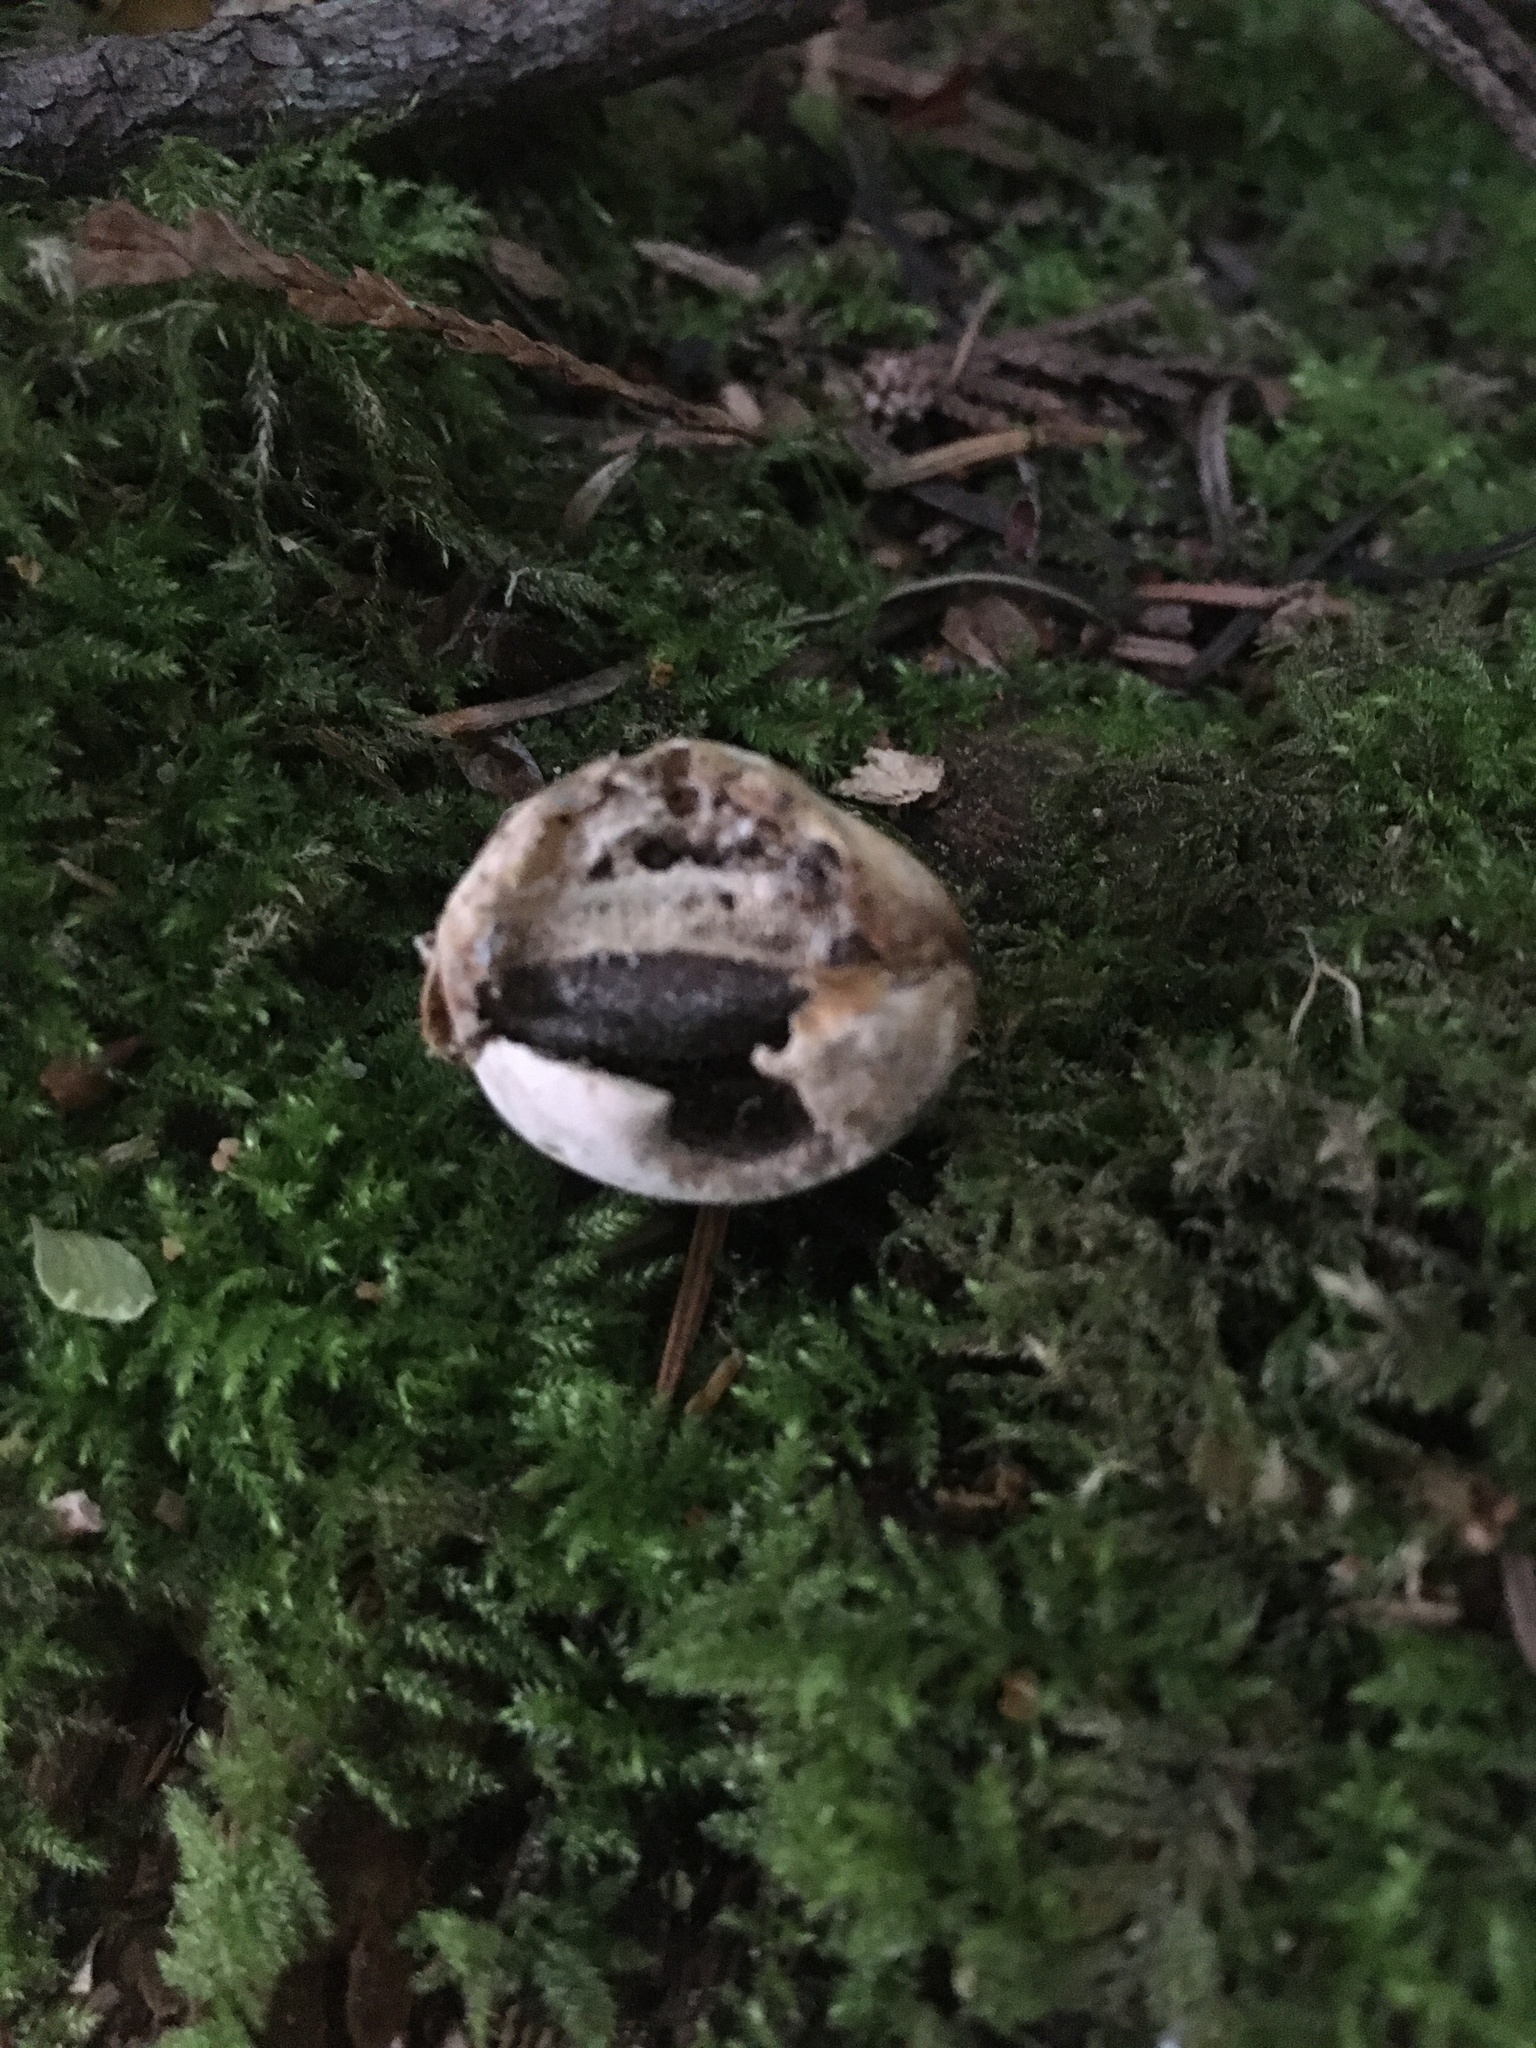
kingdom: Fungi
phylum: Basidiomycota
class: Agaricomycetes
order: Polyporales
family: Polyporaceae
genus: Cryptoporus
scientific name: Cryptoporus volvatus
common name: Veiled polypore
